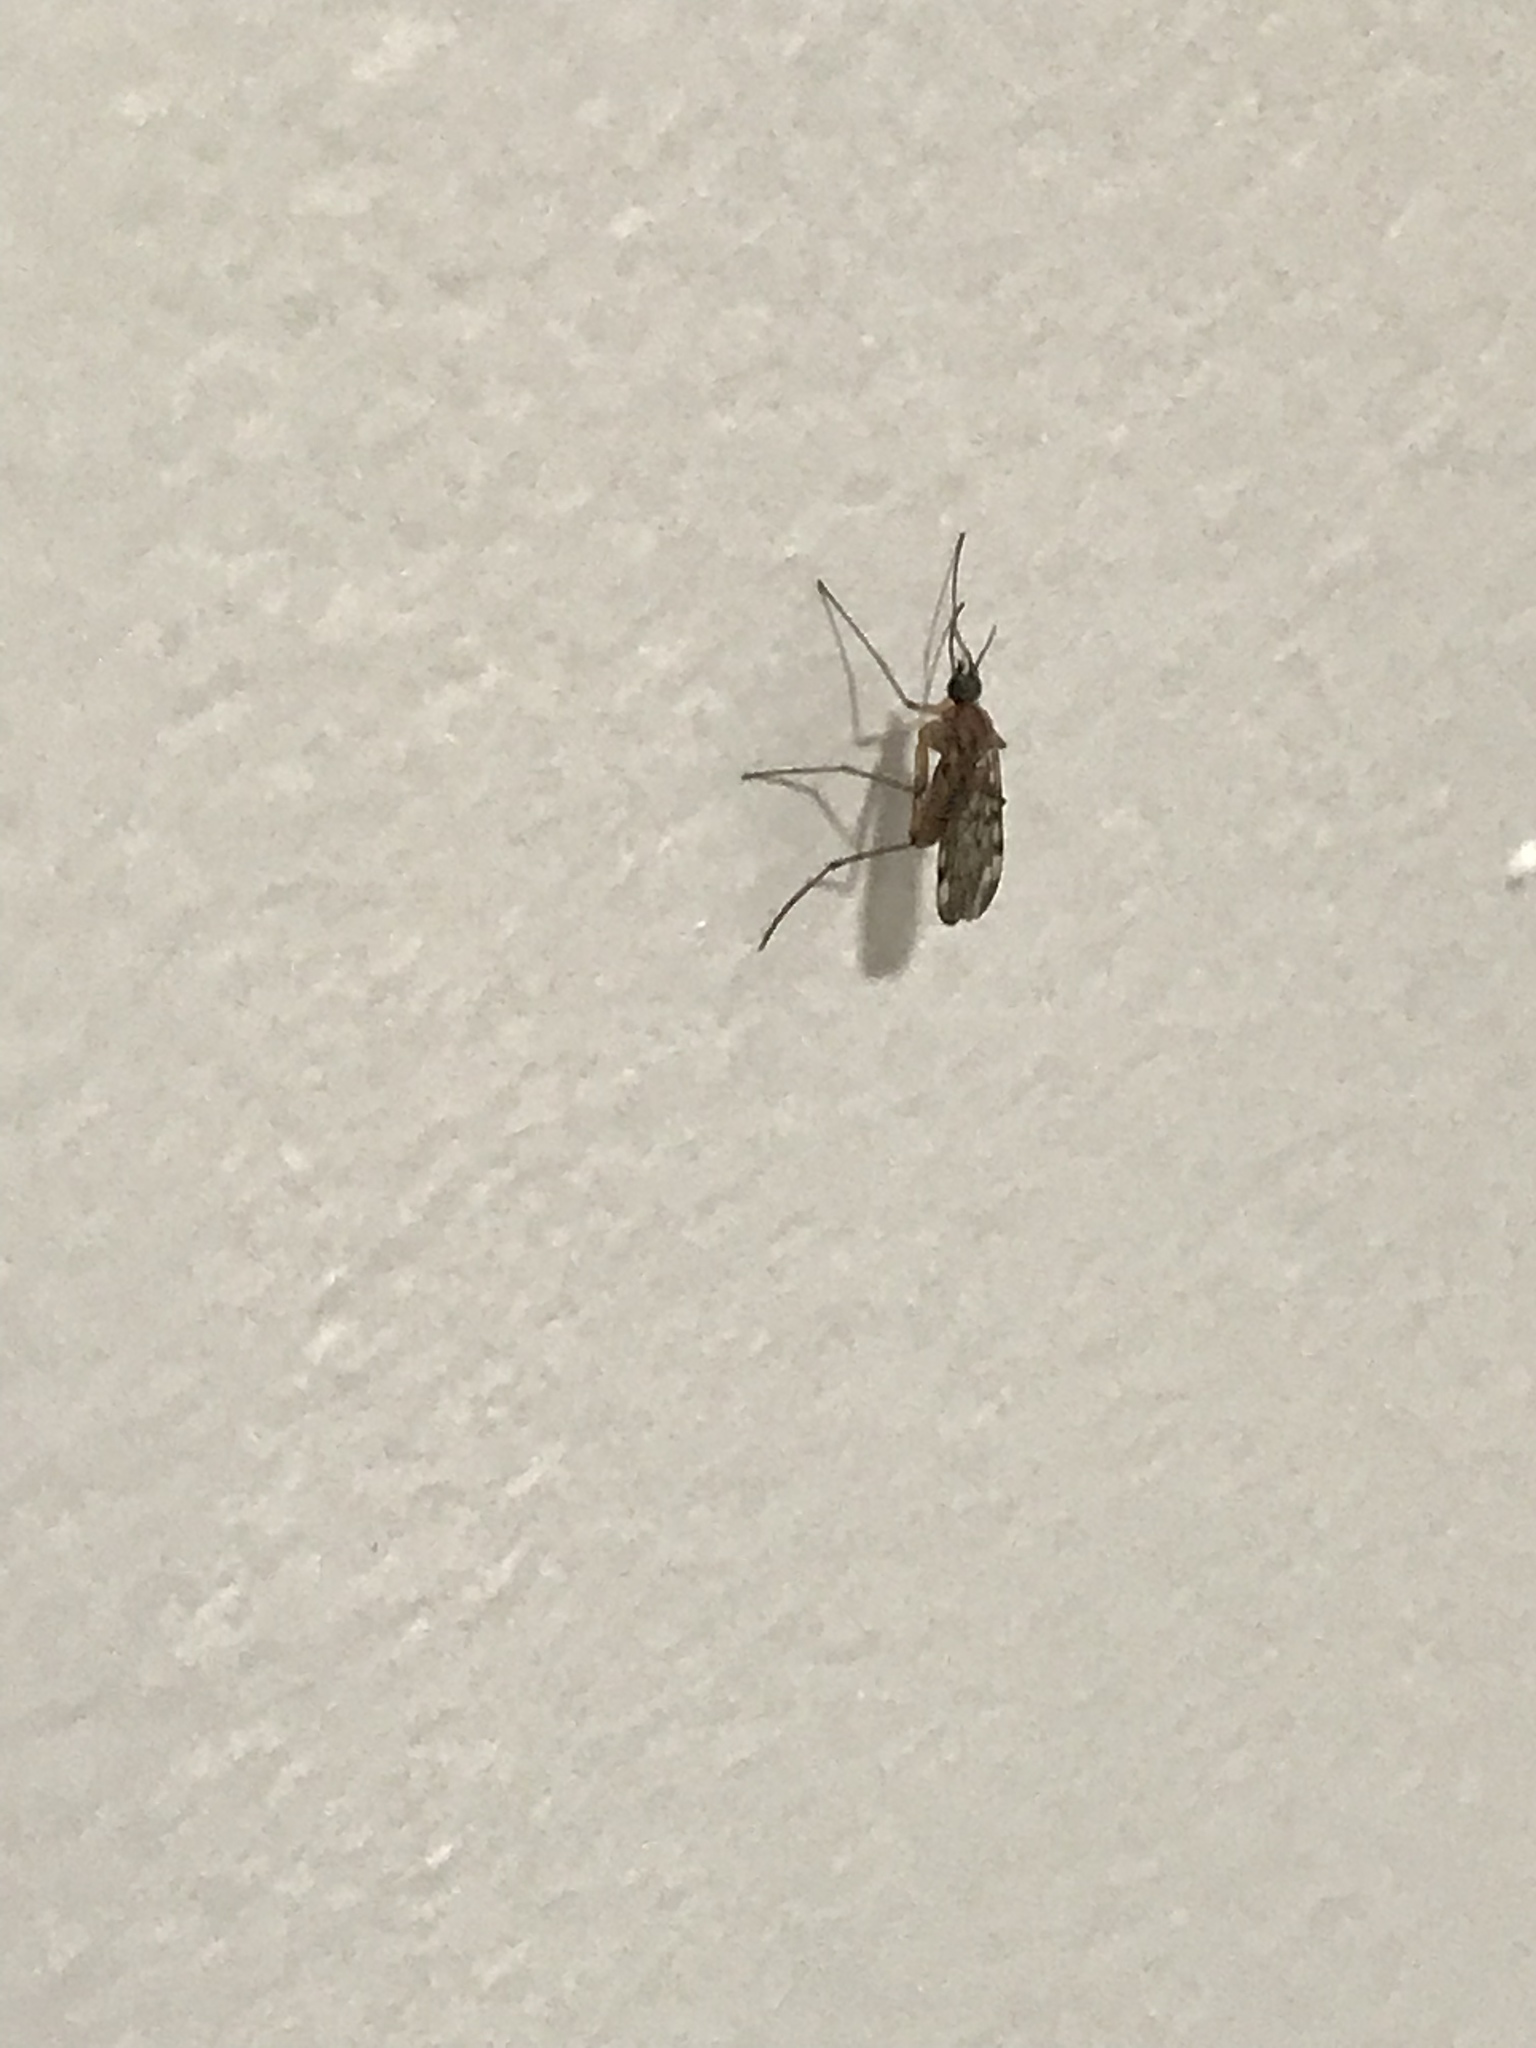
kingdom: Animalia
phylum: Arthropoda
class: Insecta
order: Diptera
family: Anisopodidae
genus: Sylvicola
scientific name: Sylvicola alternata
